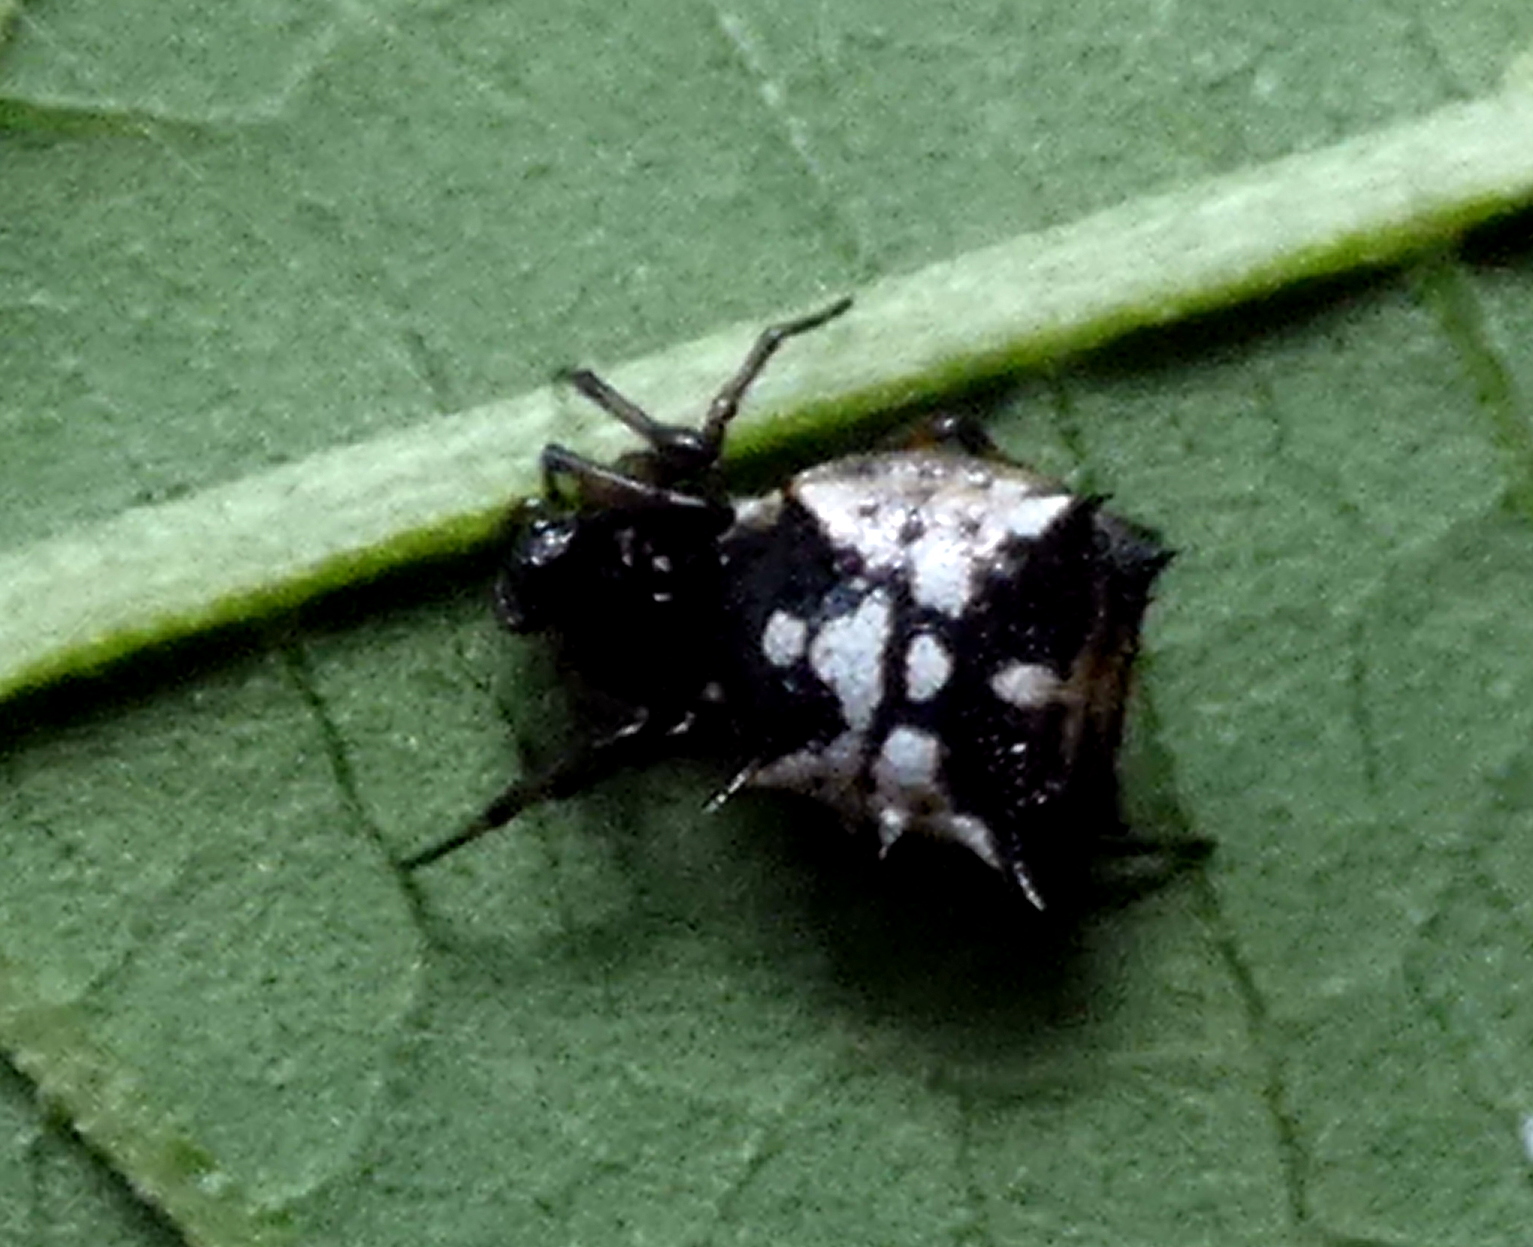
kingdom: Animalia
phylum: Arthropoda
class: Arachnida
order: Araneae
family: Araneidae
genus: Micrathena
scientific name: Micrathena picta
